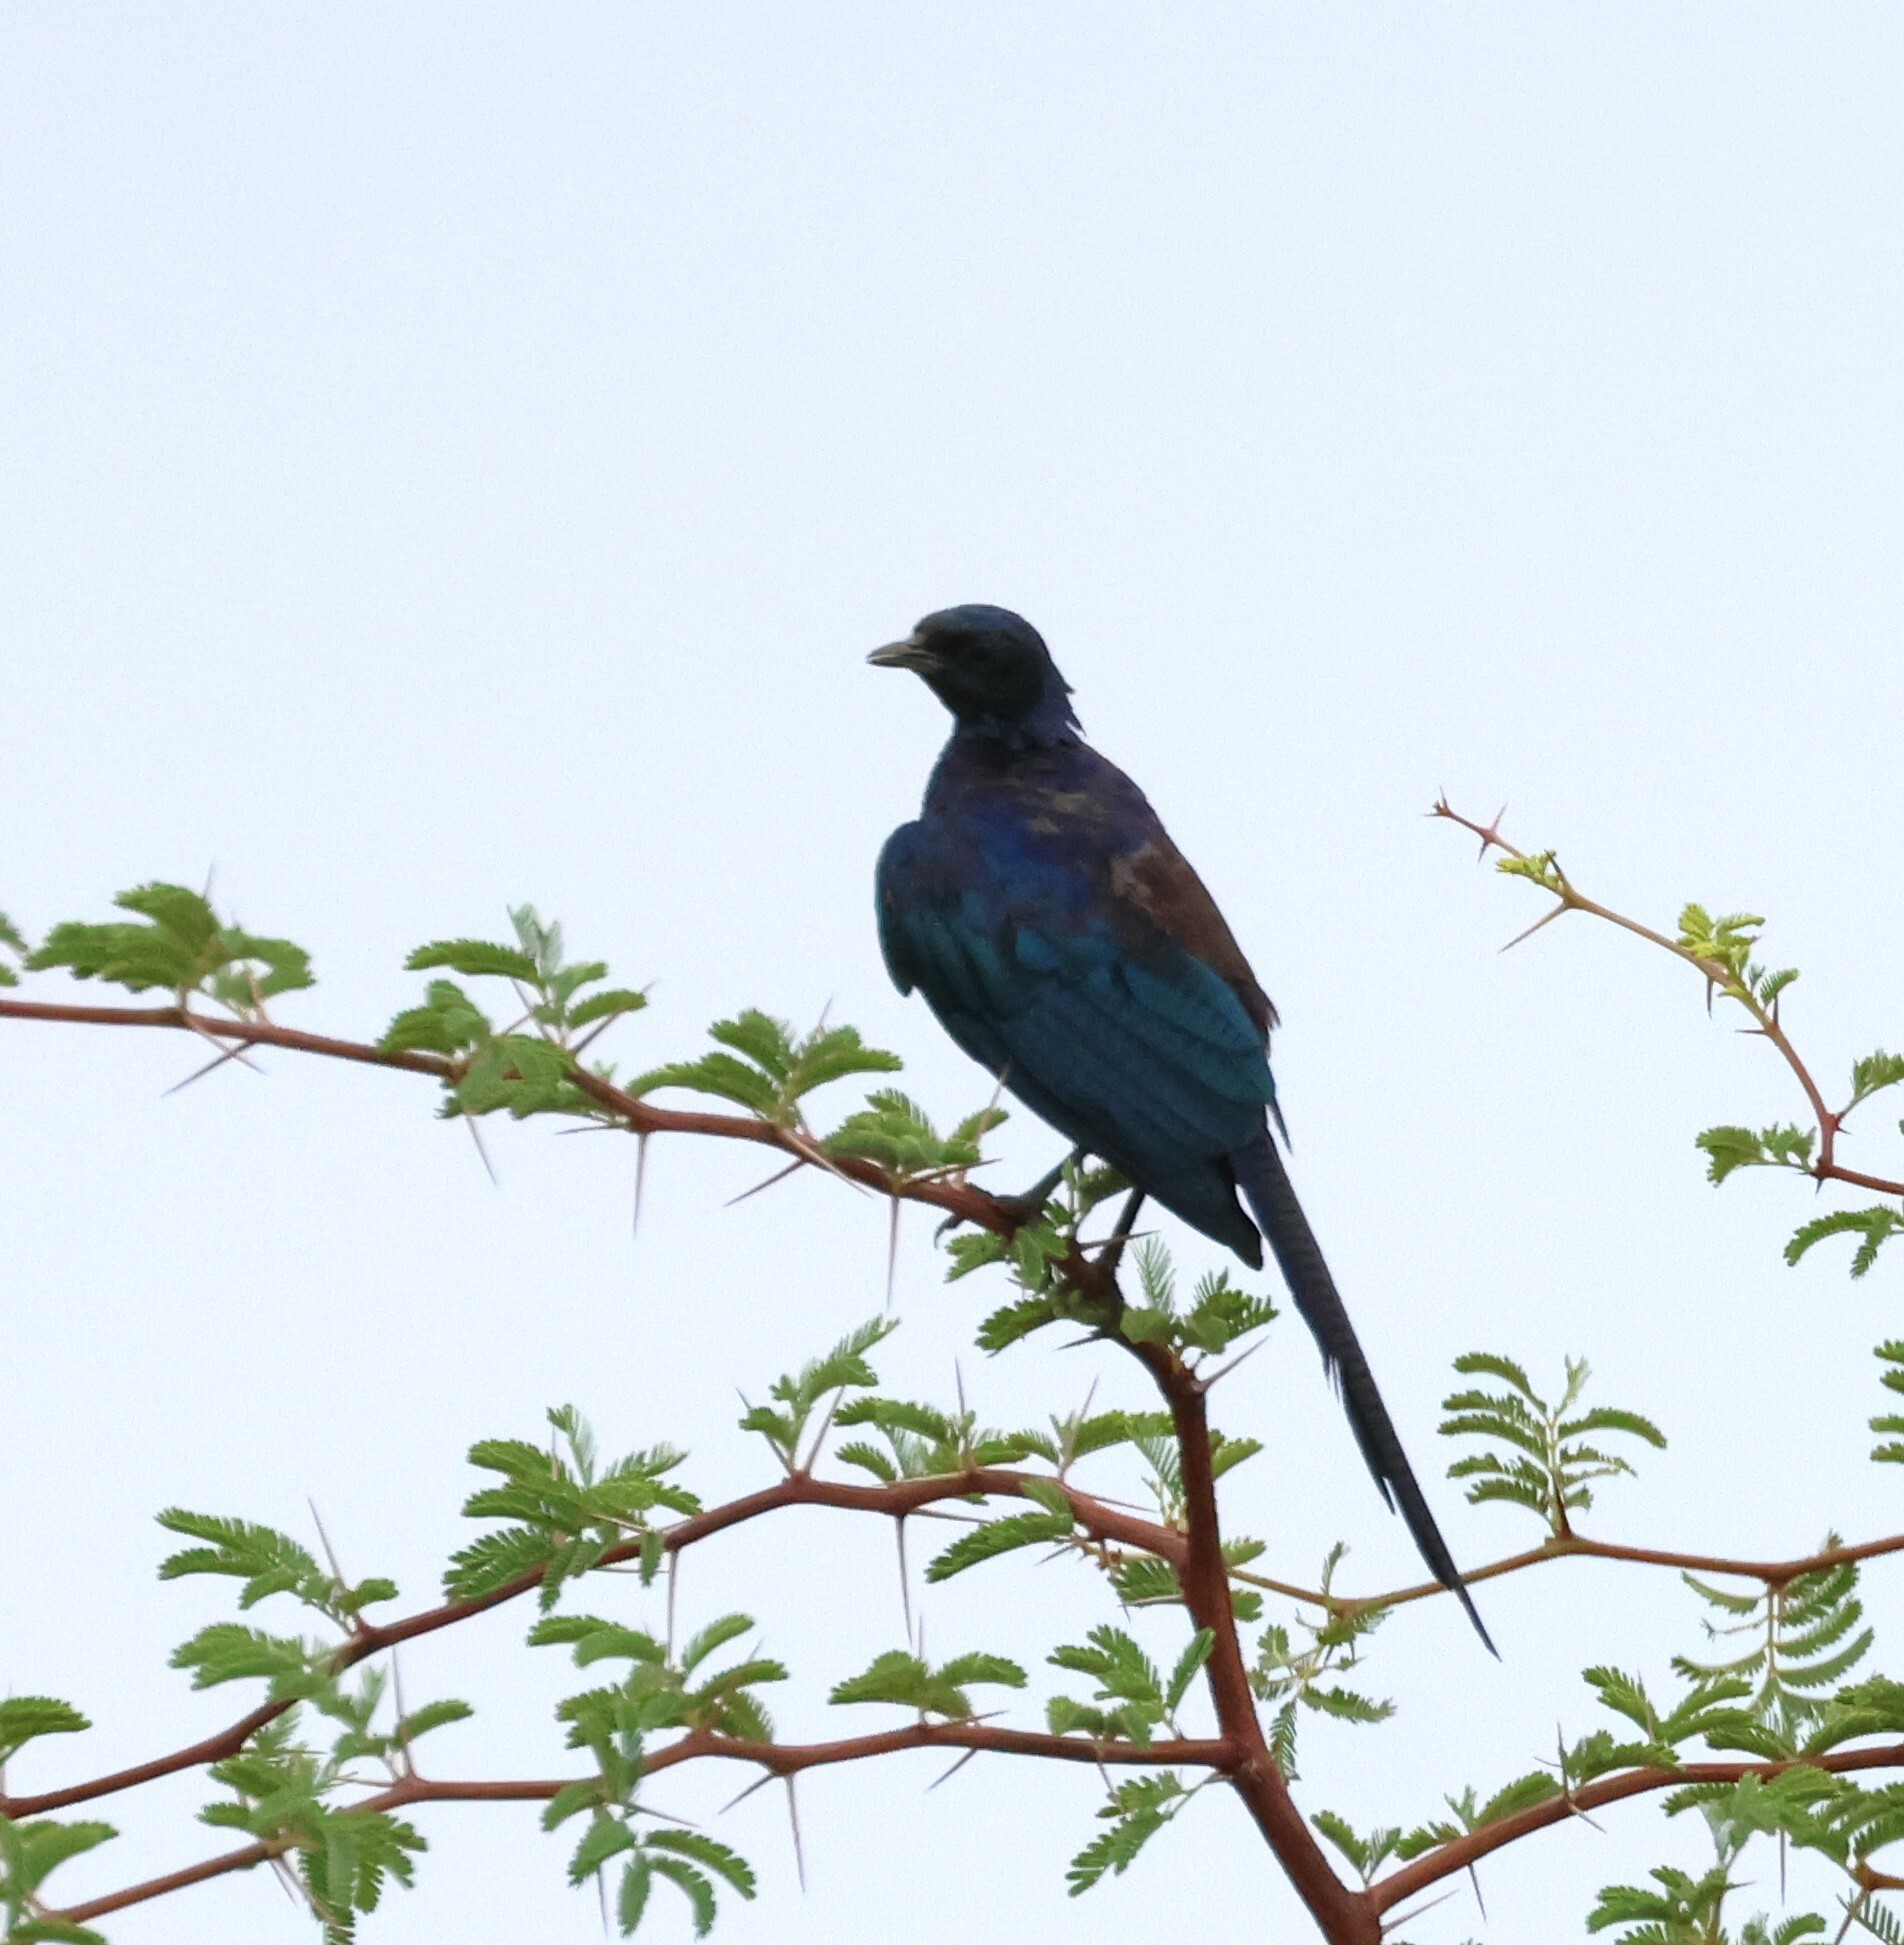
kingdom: Animalia
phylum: Chordata
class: Aves
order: Passeriformes
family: Sturnidae
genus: Lamprotornis
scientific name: Lamprotornis mevesii
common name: Meves's starling
